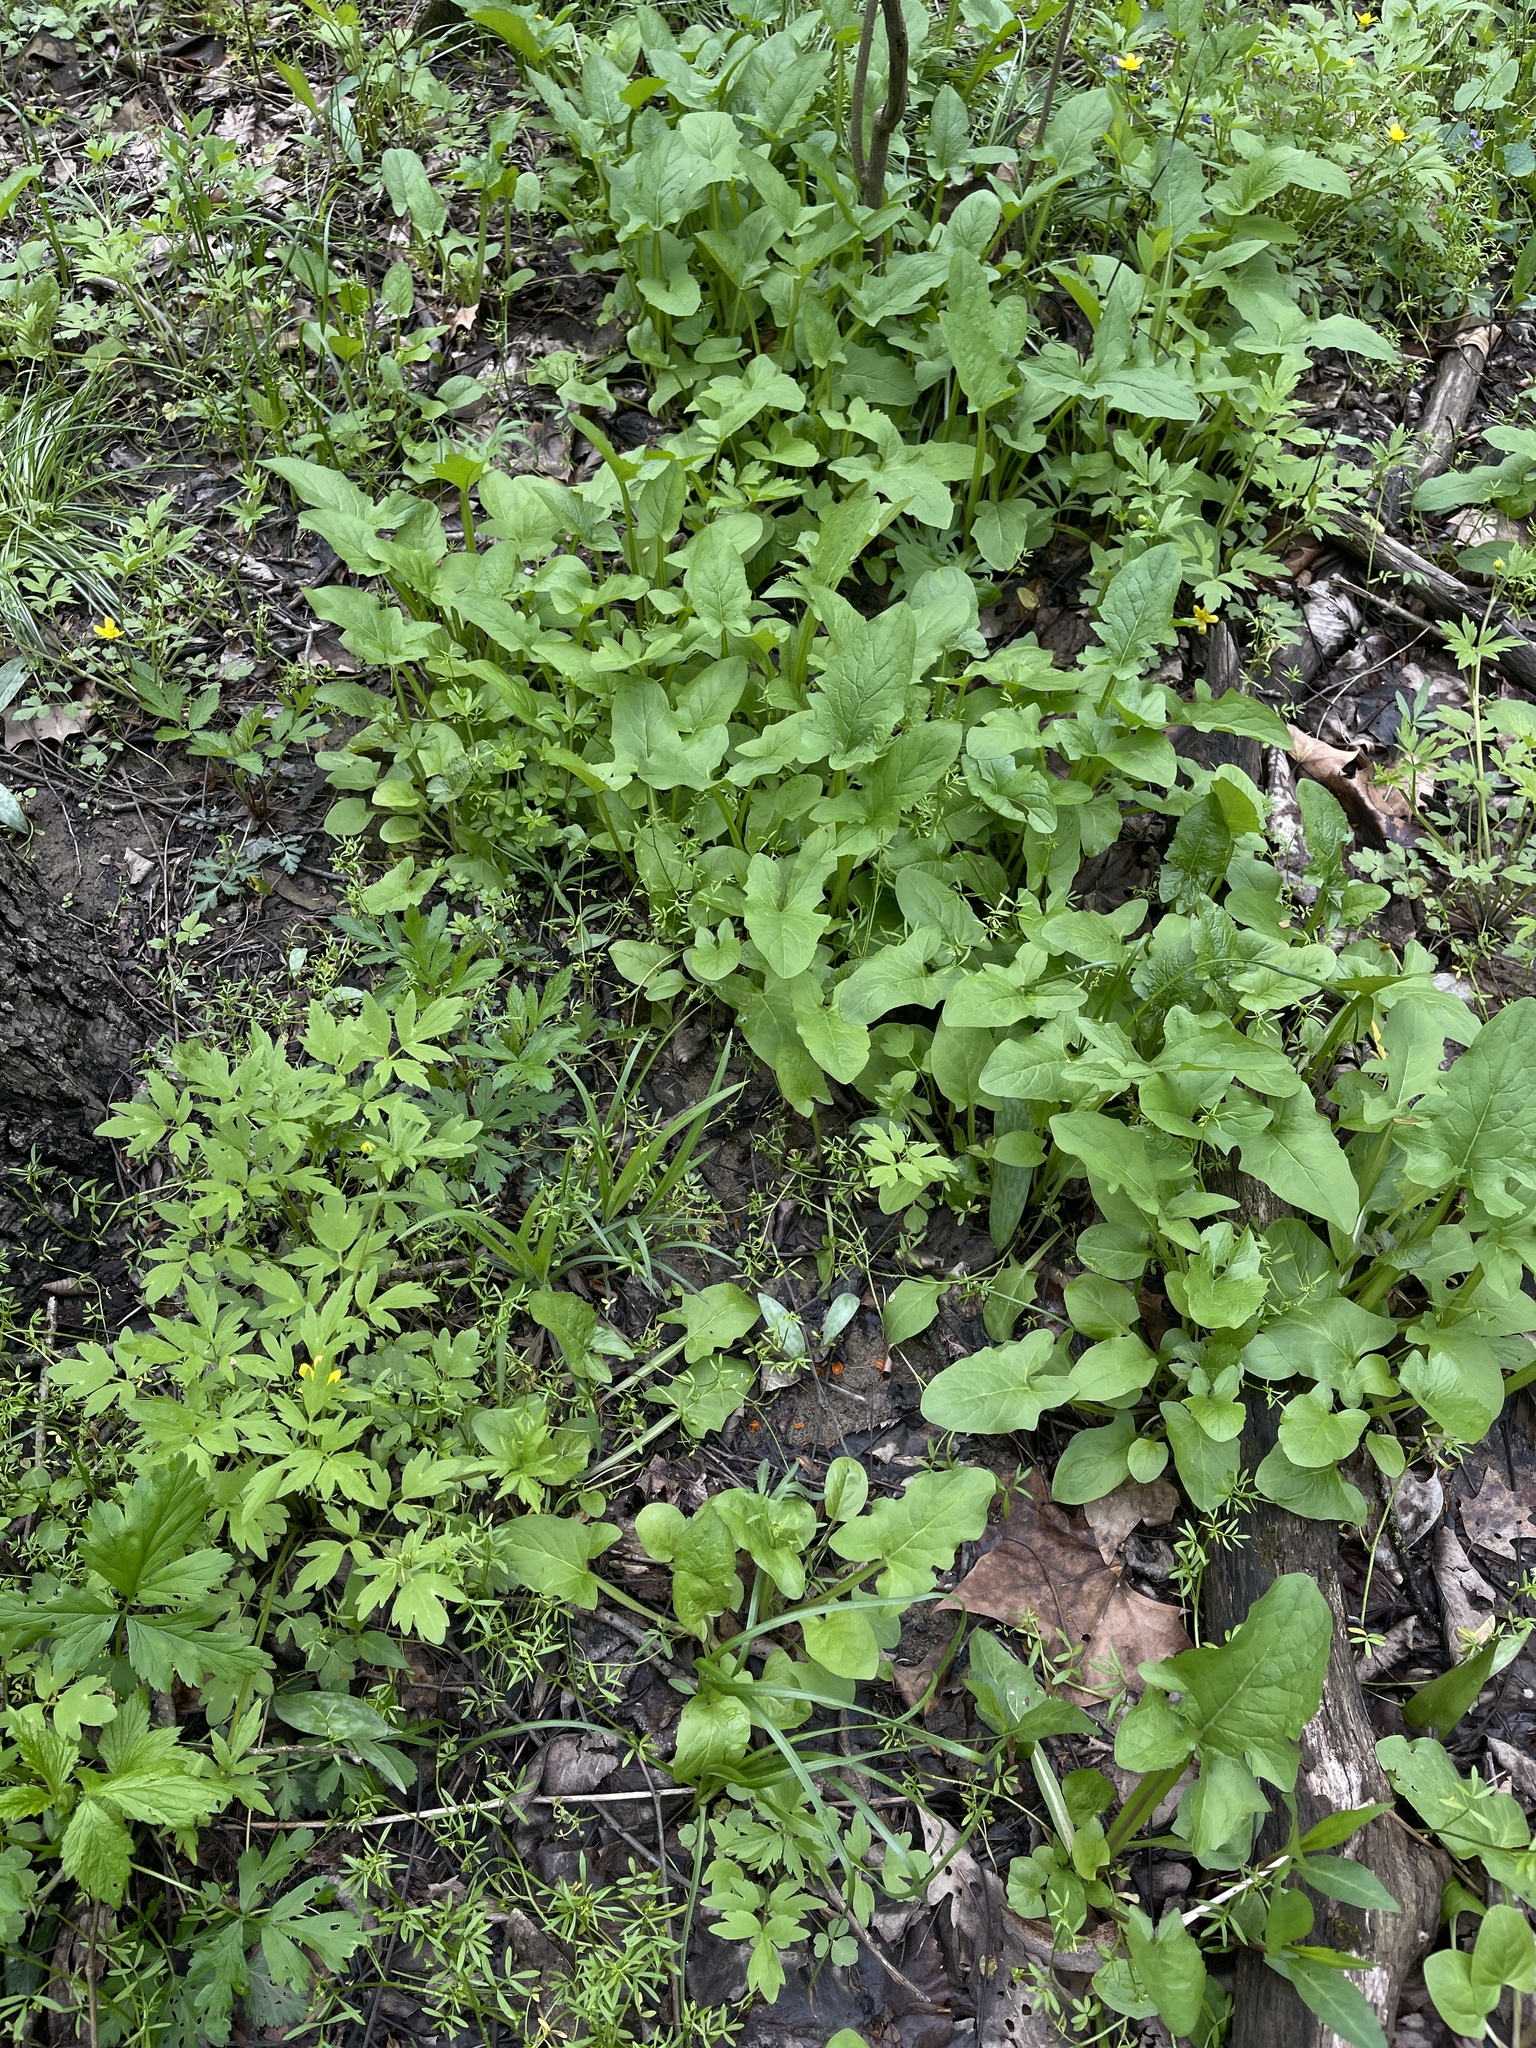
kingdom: Plantae
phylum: Tracheophyta
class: Magnoliopsida
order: Asterales
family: Asteraceae
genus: Nabalus
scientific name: Nabalus crepidineus
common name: Nodding rattlesnakeroot
